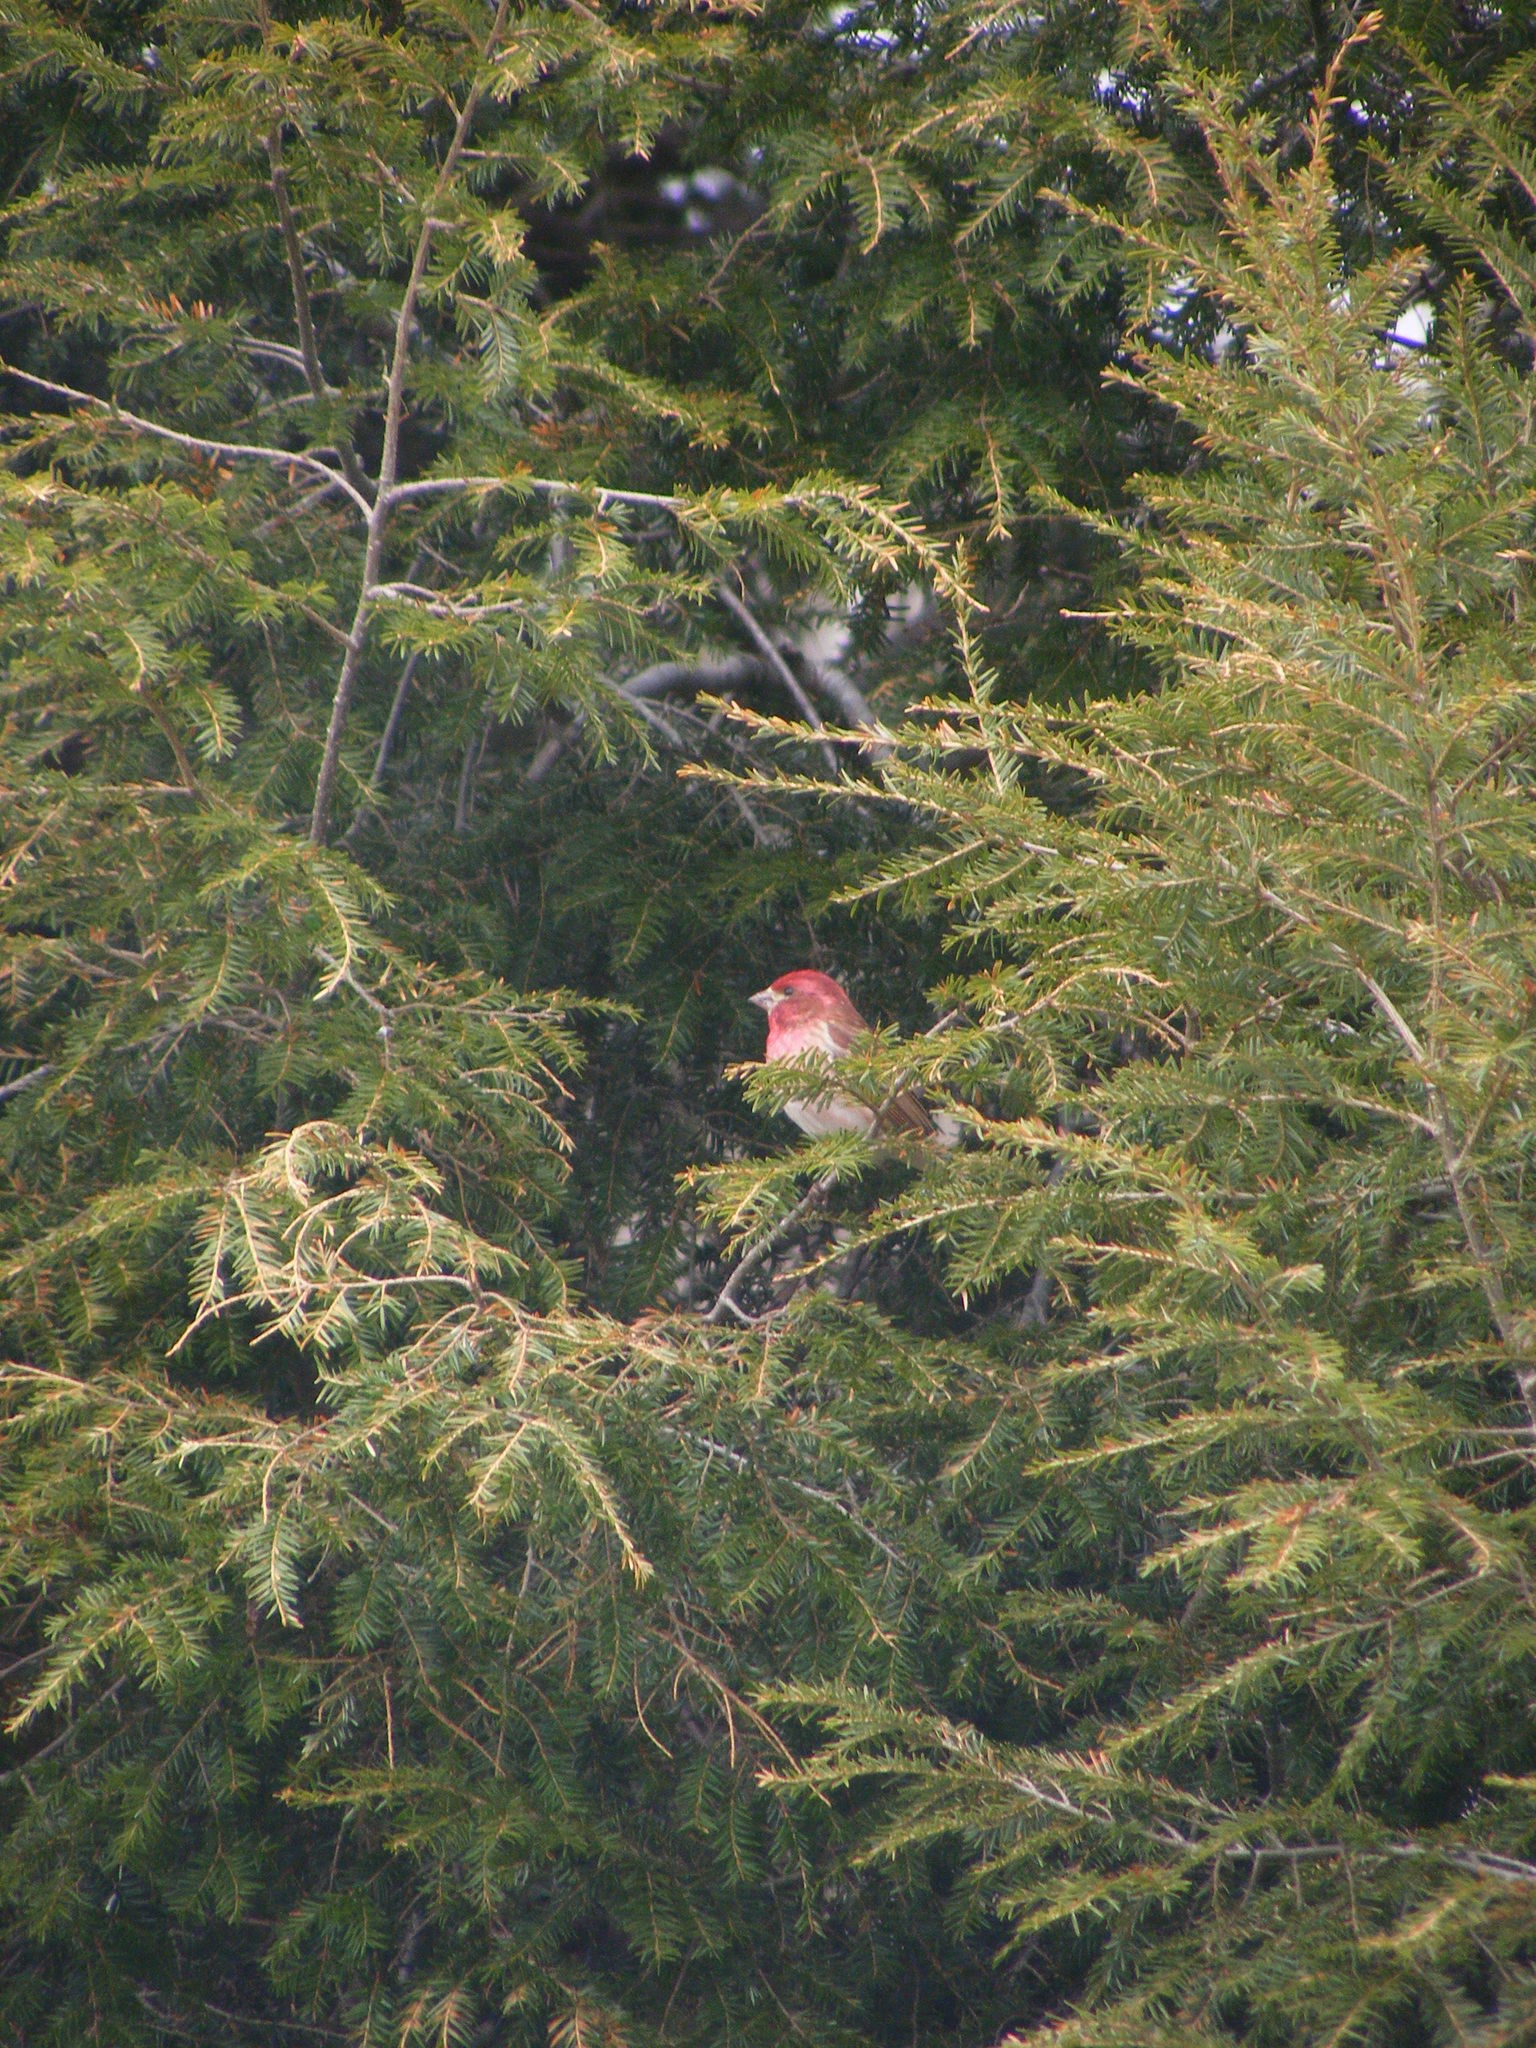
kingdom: Animalia
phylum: Chordata
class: Aves
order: Passeriformes
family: Fringillidae
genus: Haemorhous
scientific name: Haemorhous purpureus
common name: Purple finch
